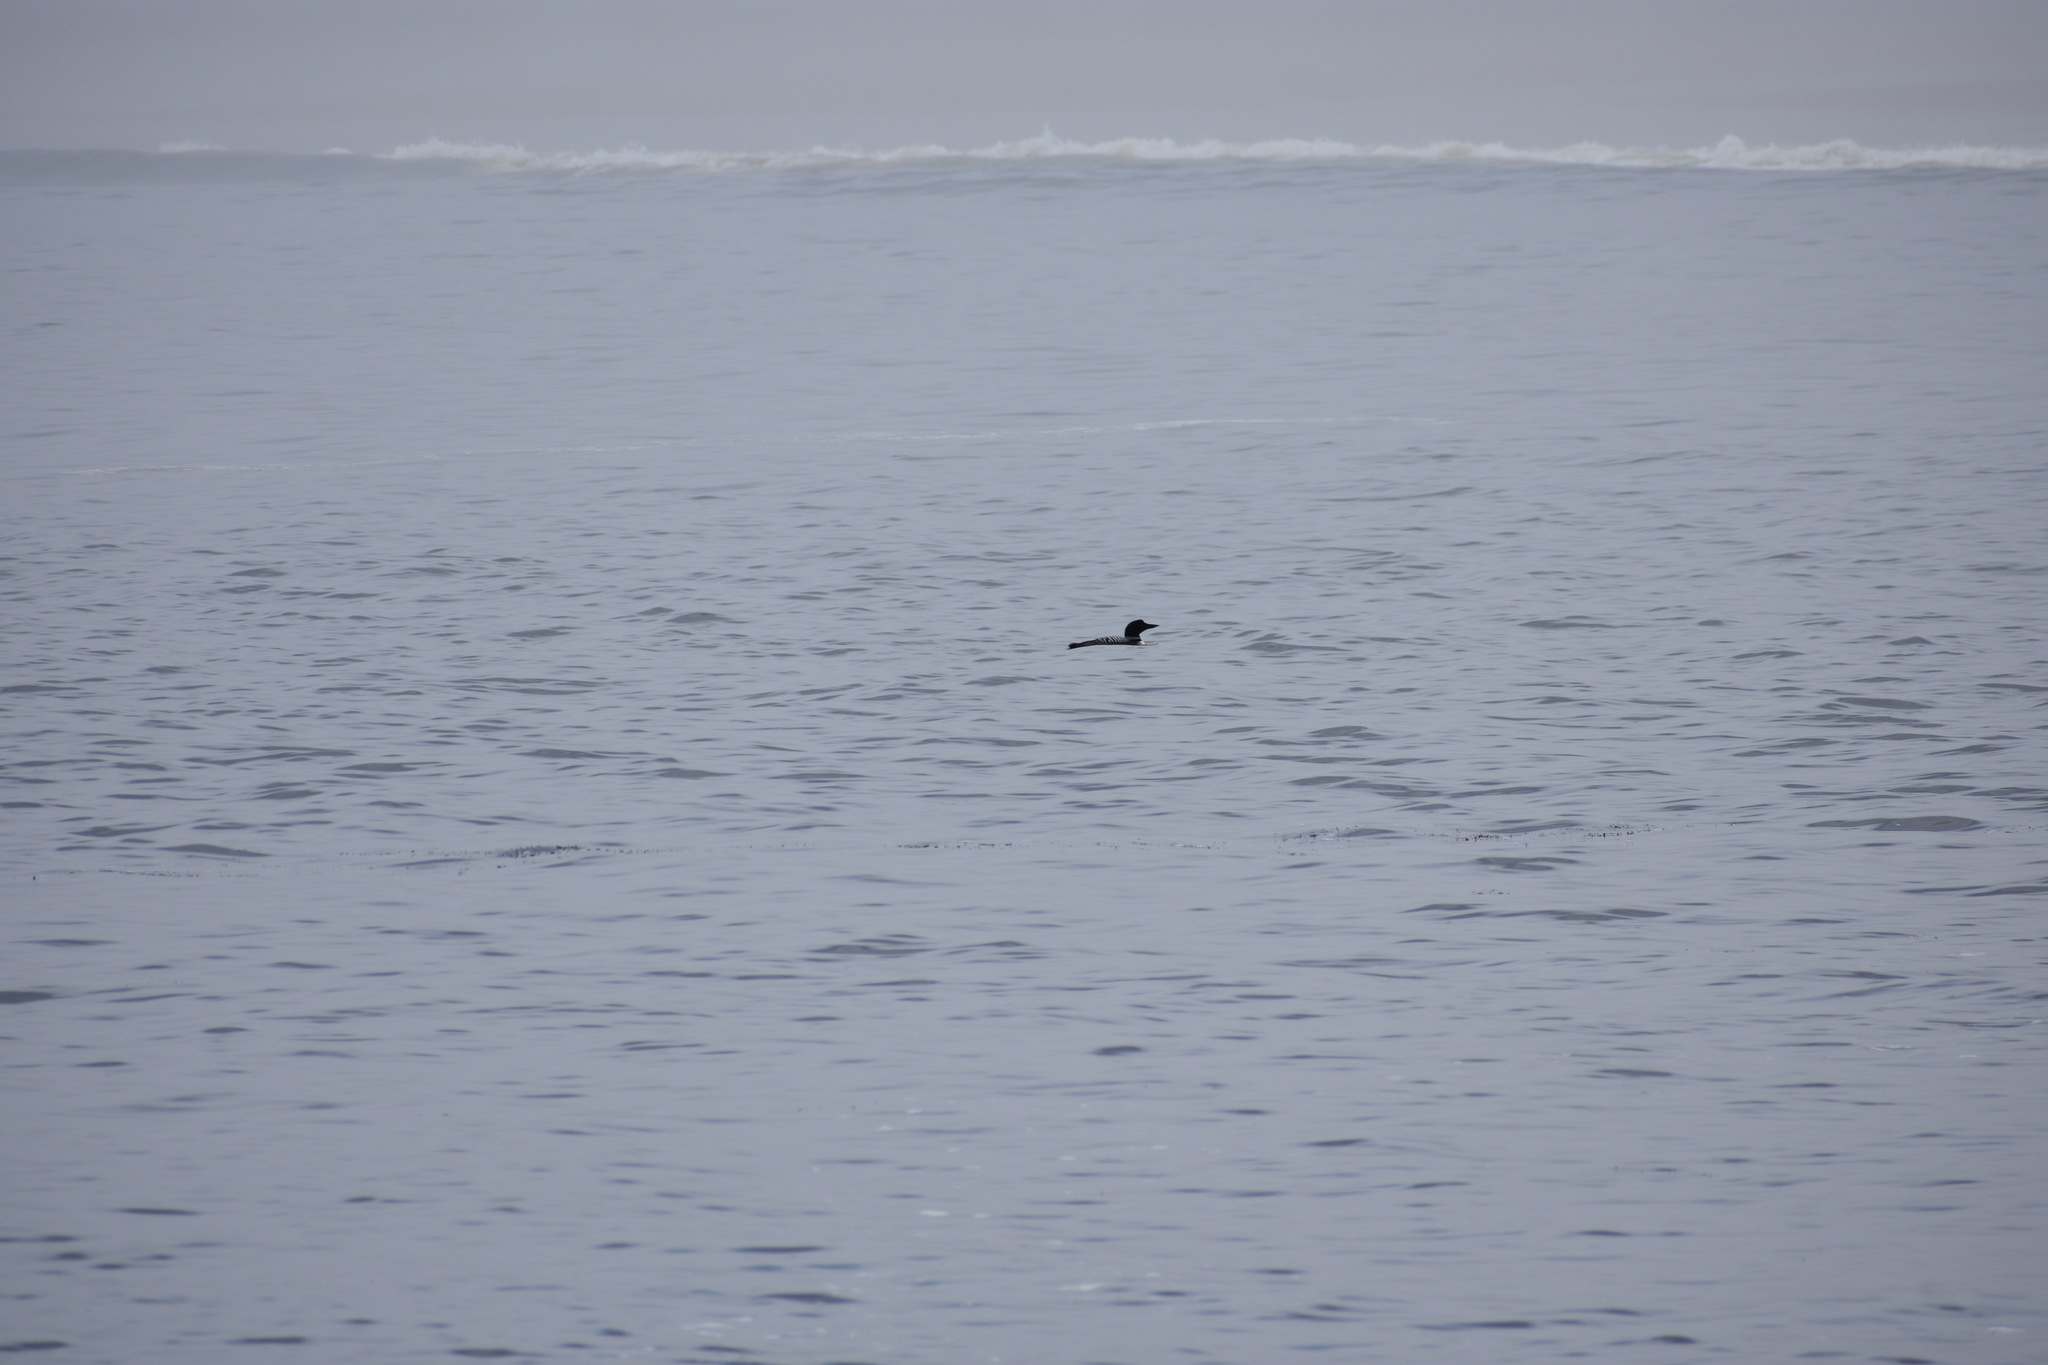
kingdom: Animalia
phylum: Chordata
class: Aves
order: Gaviiformes
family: Gaviidae
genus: Gavia
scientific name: Gavia immer
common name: Common loon
